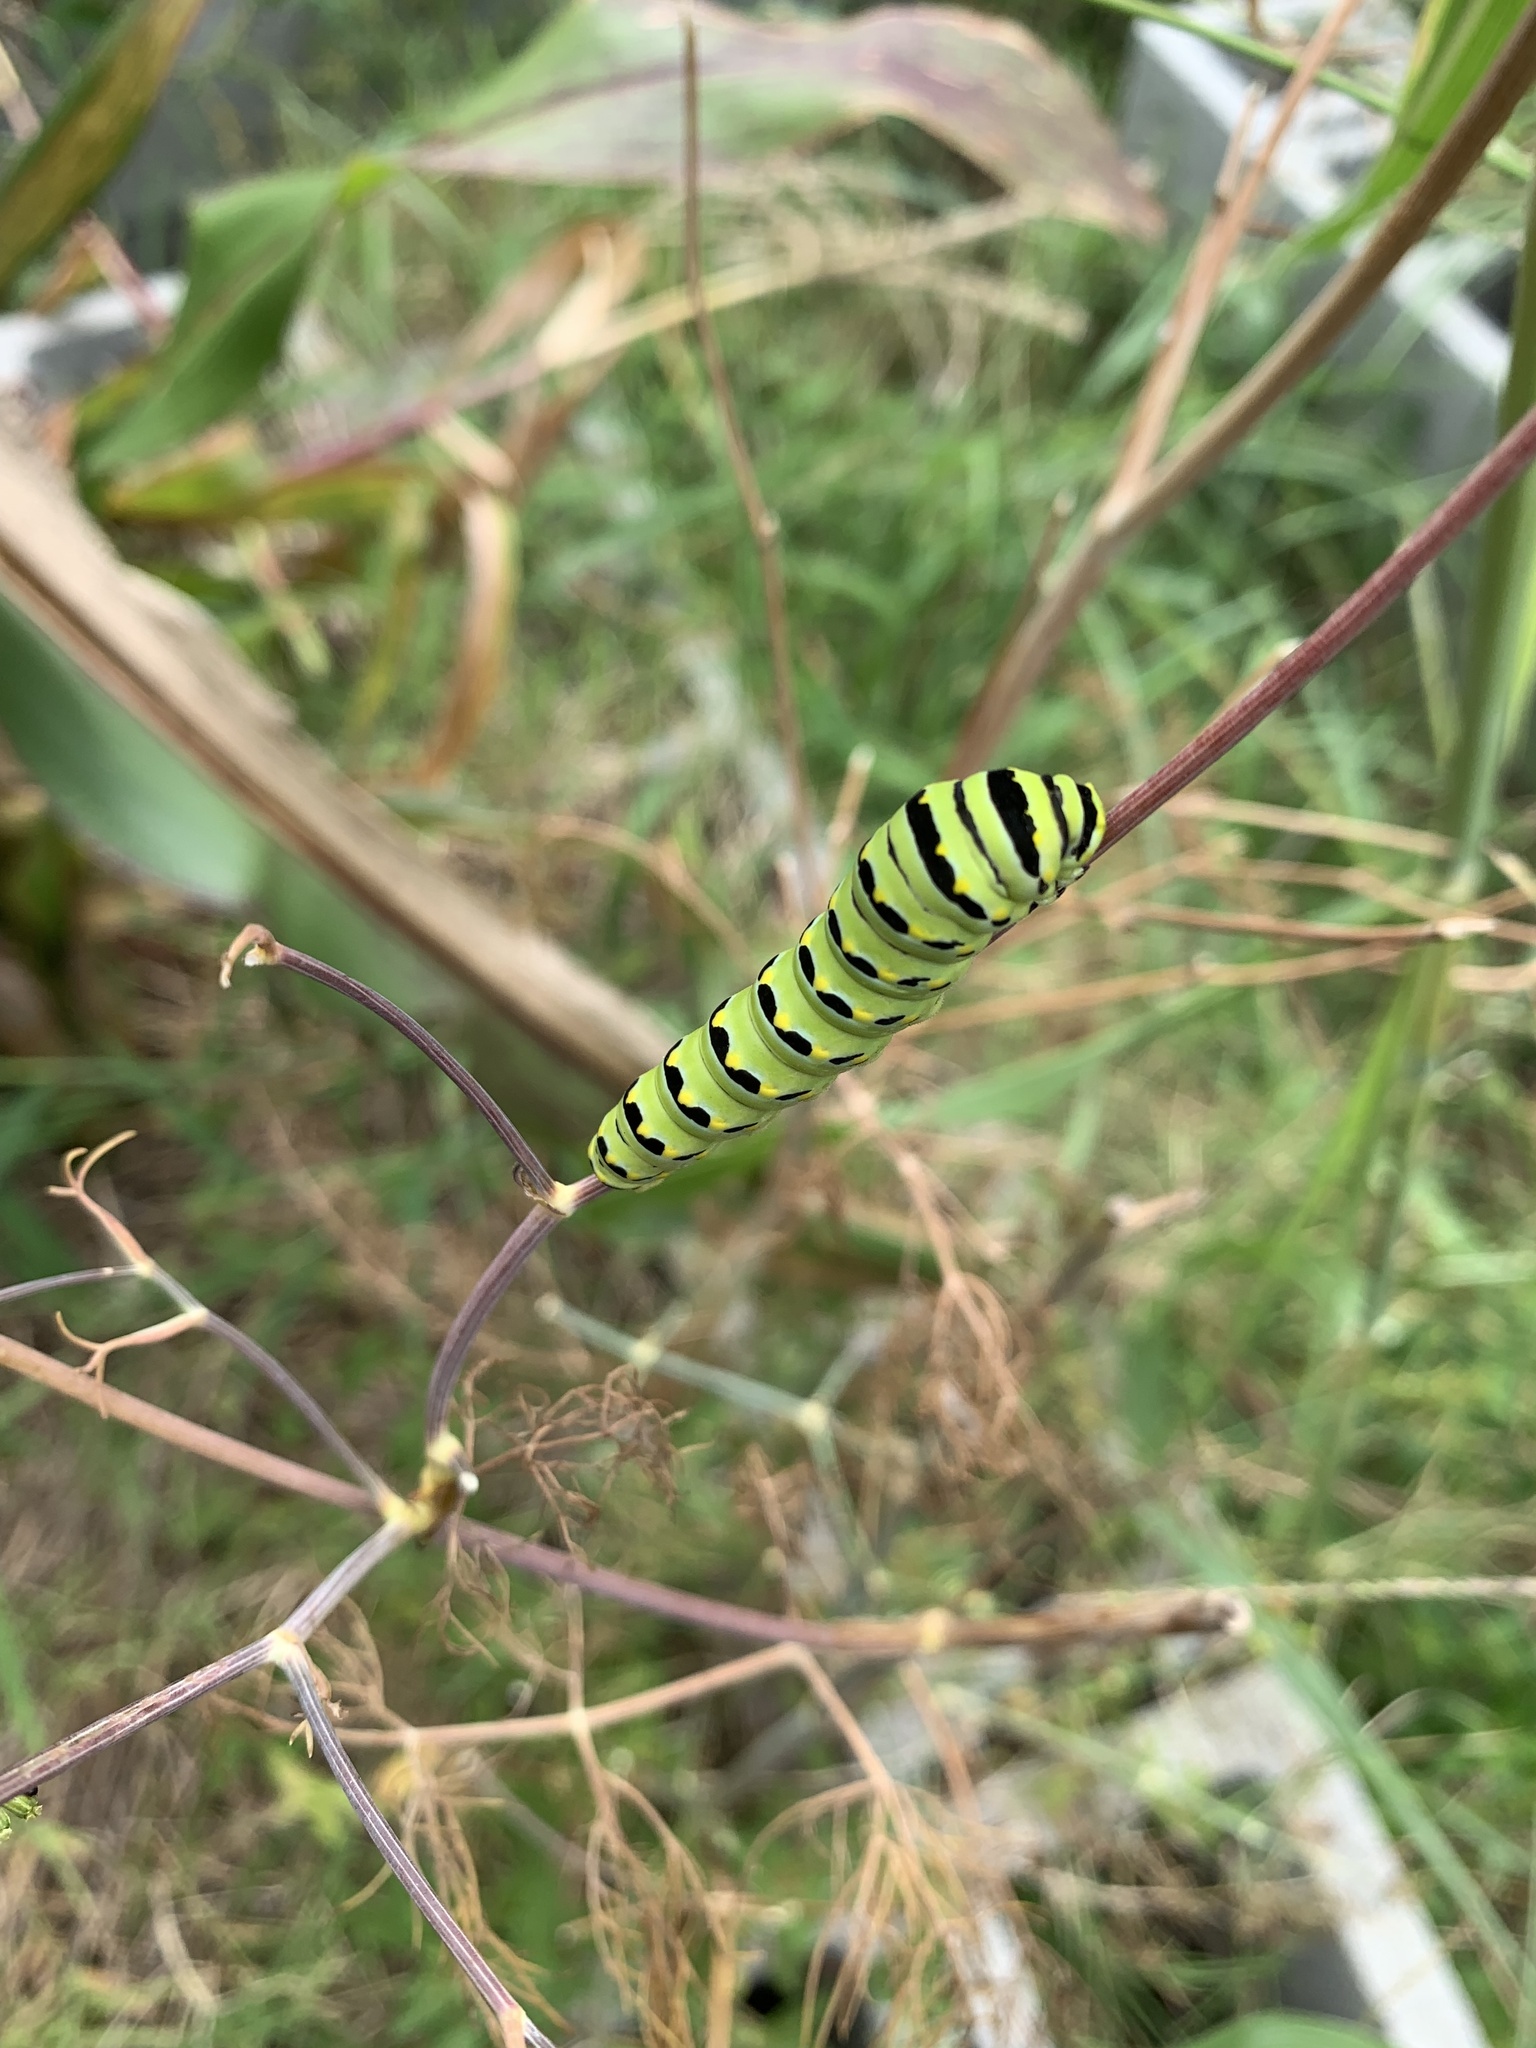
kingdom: Animalia
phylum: Arthropoda
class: Insecta
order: Lepidoptera
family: Papilionidae
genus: Papilio
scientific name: Papilio polyxenes
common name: Black swallowtail
